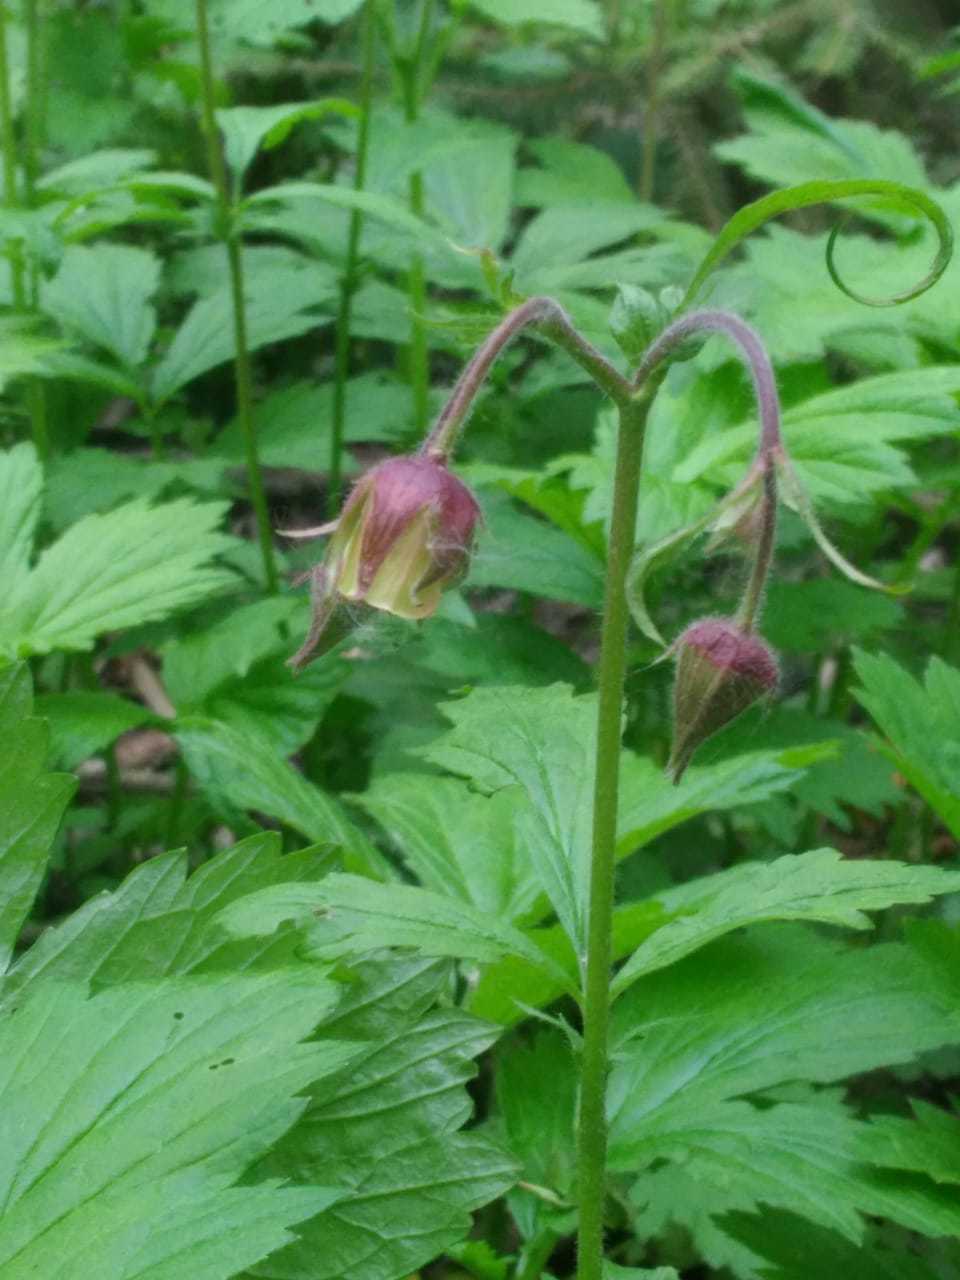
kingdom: Plantae
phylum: Tracheophyta
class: Magnoliopsida
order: Rosales
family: Rosaceae
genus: Geum
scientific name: Geum rivale
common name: Water avens
